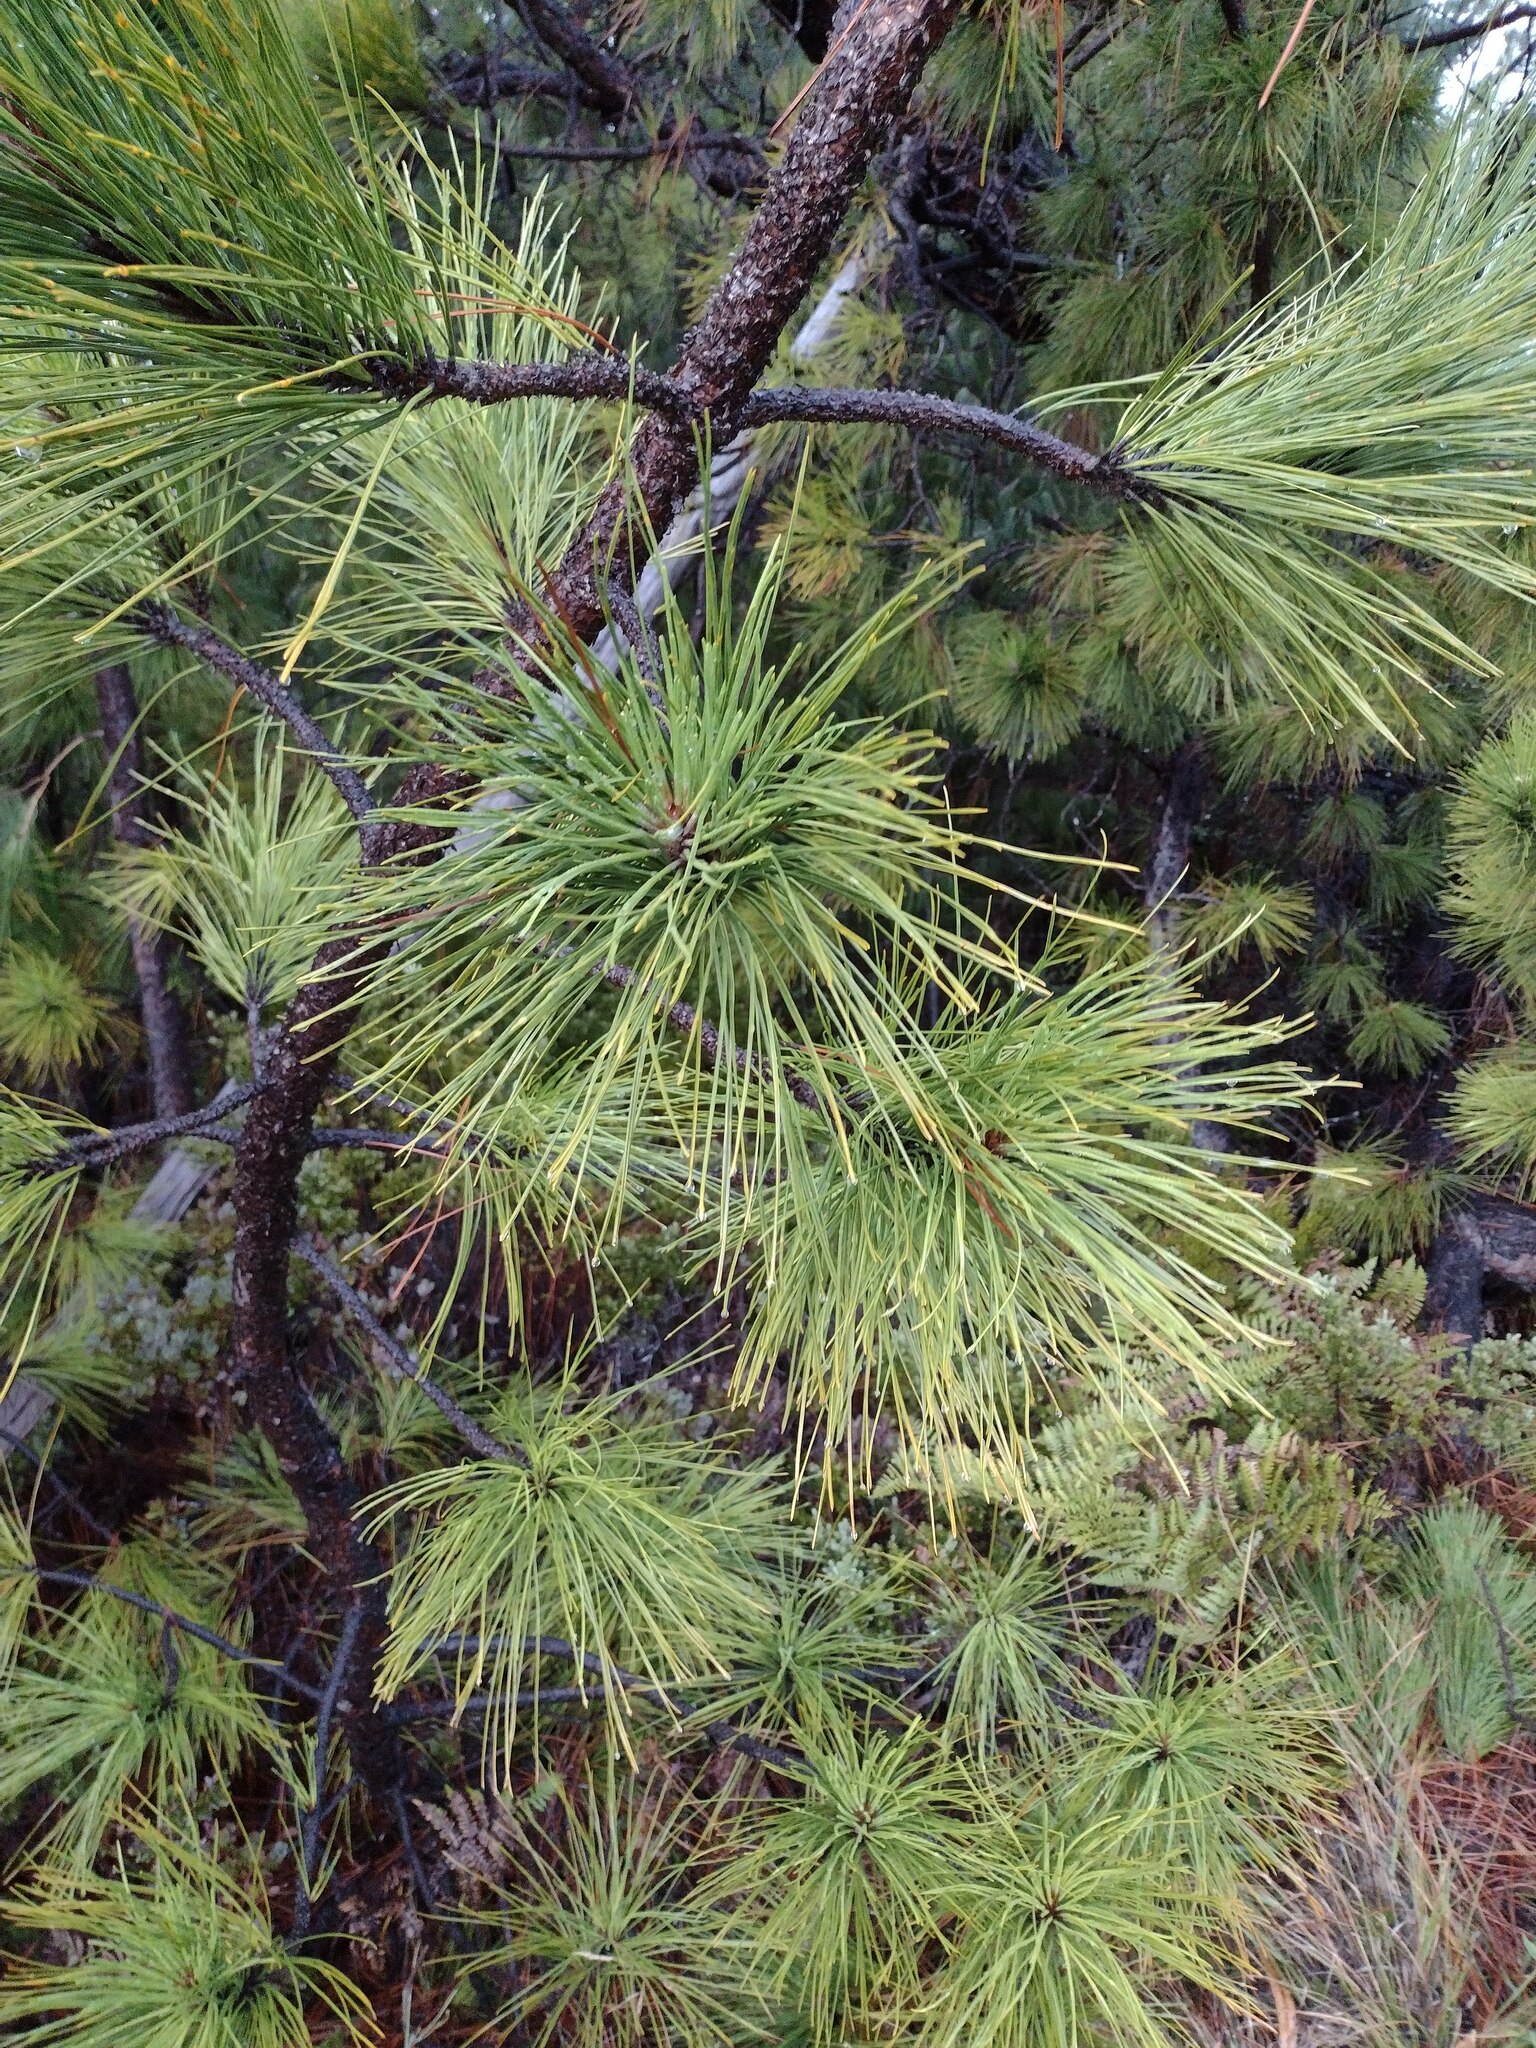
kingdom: Plantae
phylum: Tracheophyta
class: Pinopsida
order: Pinales
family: Pinaceae
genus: Pinus
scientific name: Pinus radiata
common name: Monterey pine
